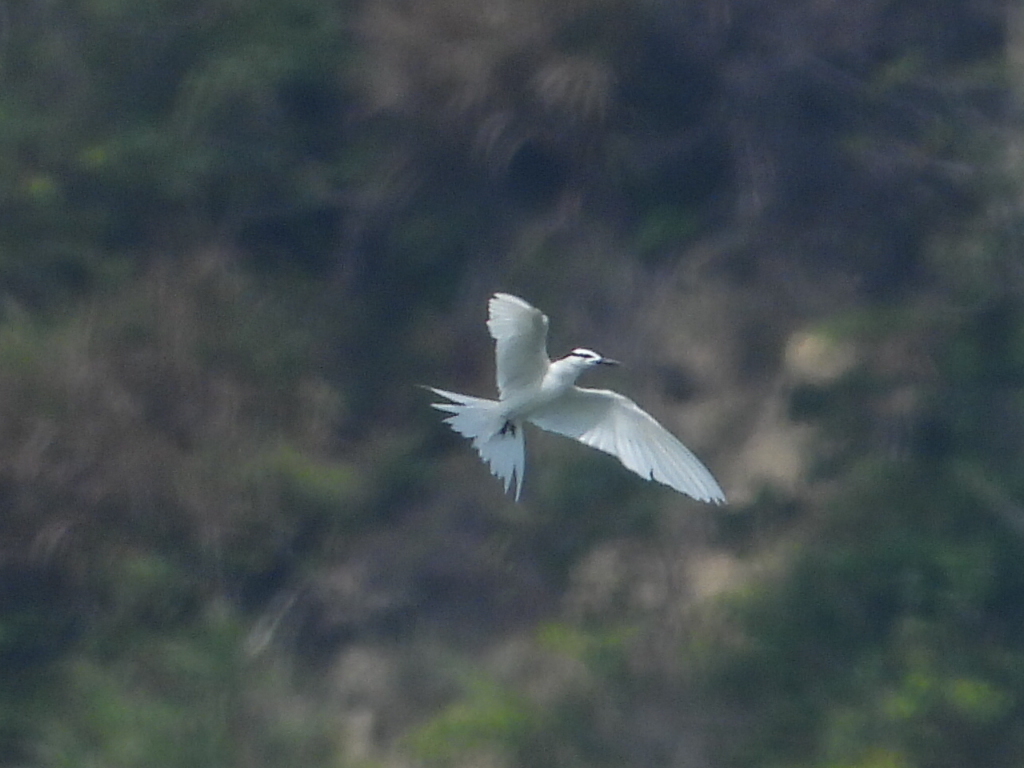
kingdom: Animalia
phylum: Chordata
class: Aves
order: Charadriiformes
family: Laridae
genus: Sterna
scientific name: Sterna sumatrana
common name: Black-naped tern
